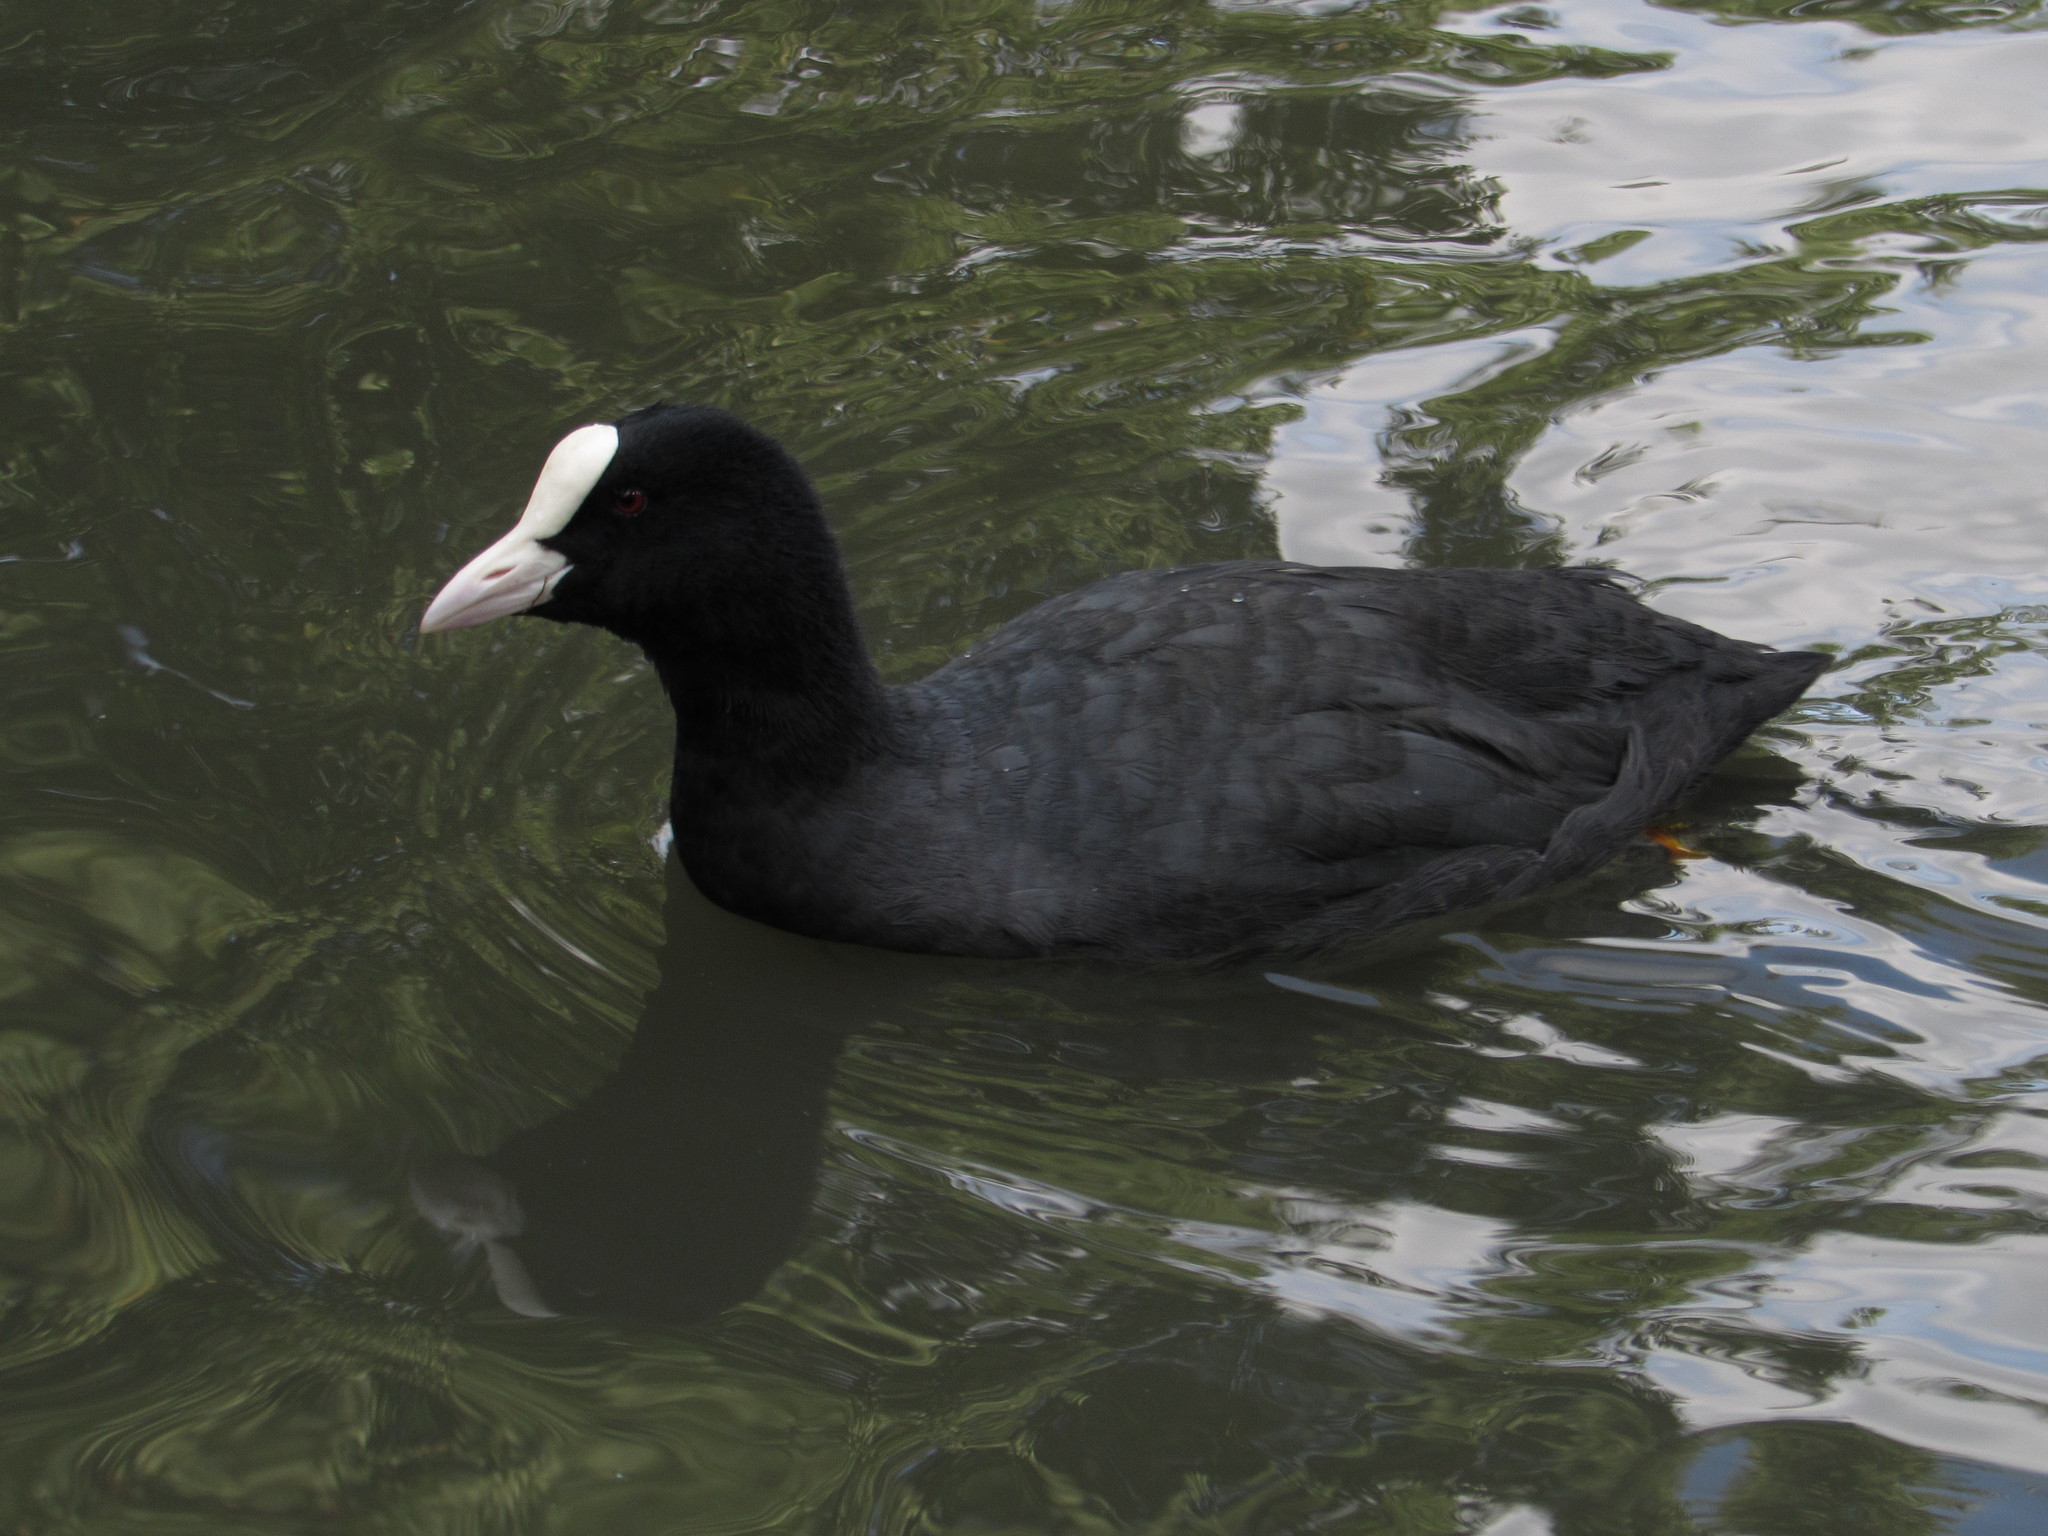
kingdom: Animalia
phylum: Chordata
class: Aves
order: Gruiformes
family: Rallidae
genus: Fulica
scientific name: Fulica atra
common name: Eurasian coot
